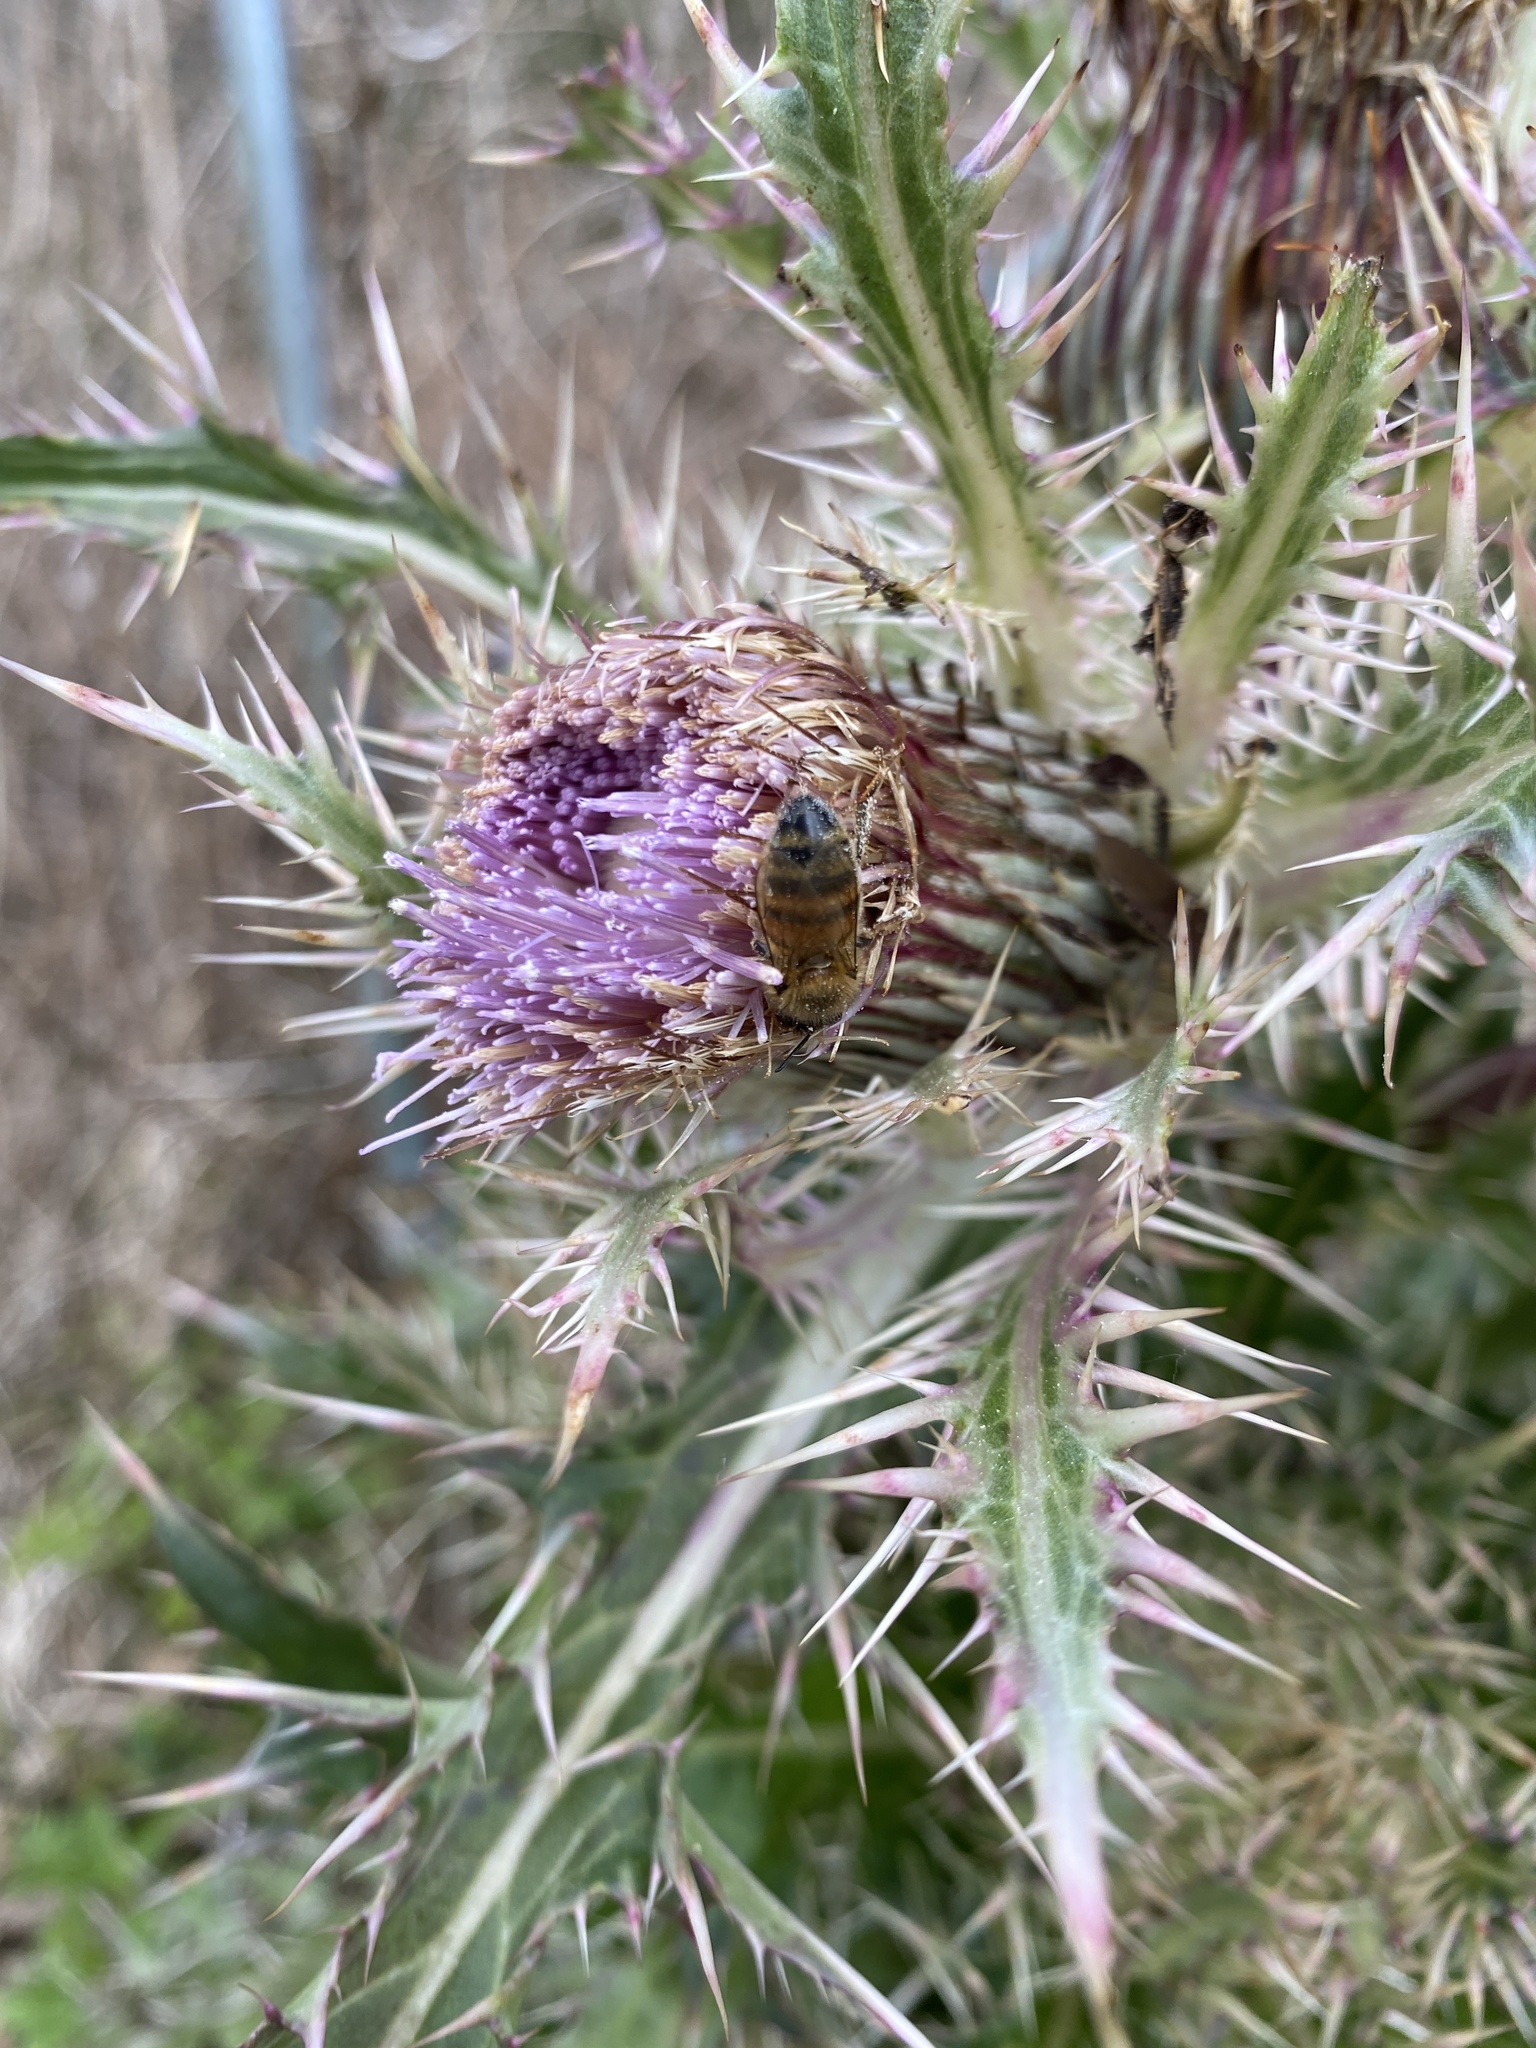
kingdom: Animalia
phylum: Arthropoda
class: Insecta
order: Hymenoptera
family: Apidae
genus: Apis
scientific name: Apis mellifera
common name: Honey bee
